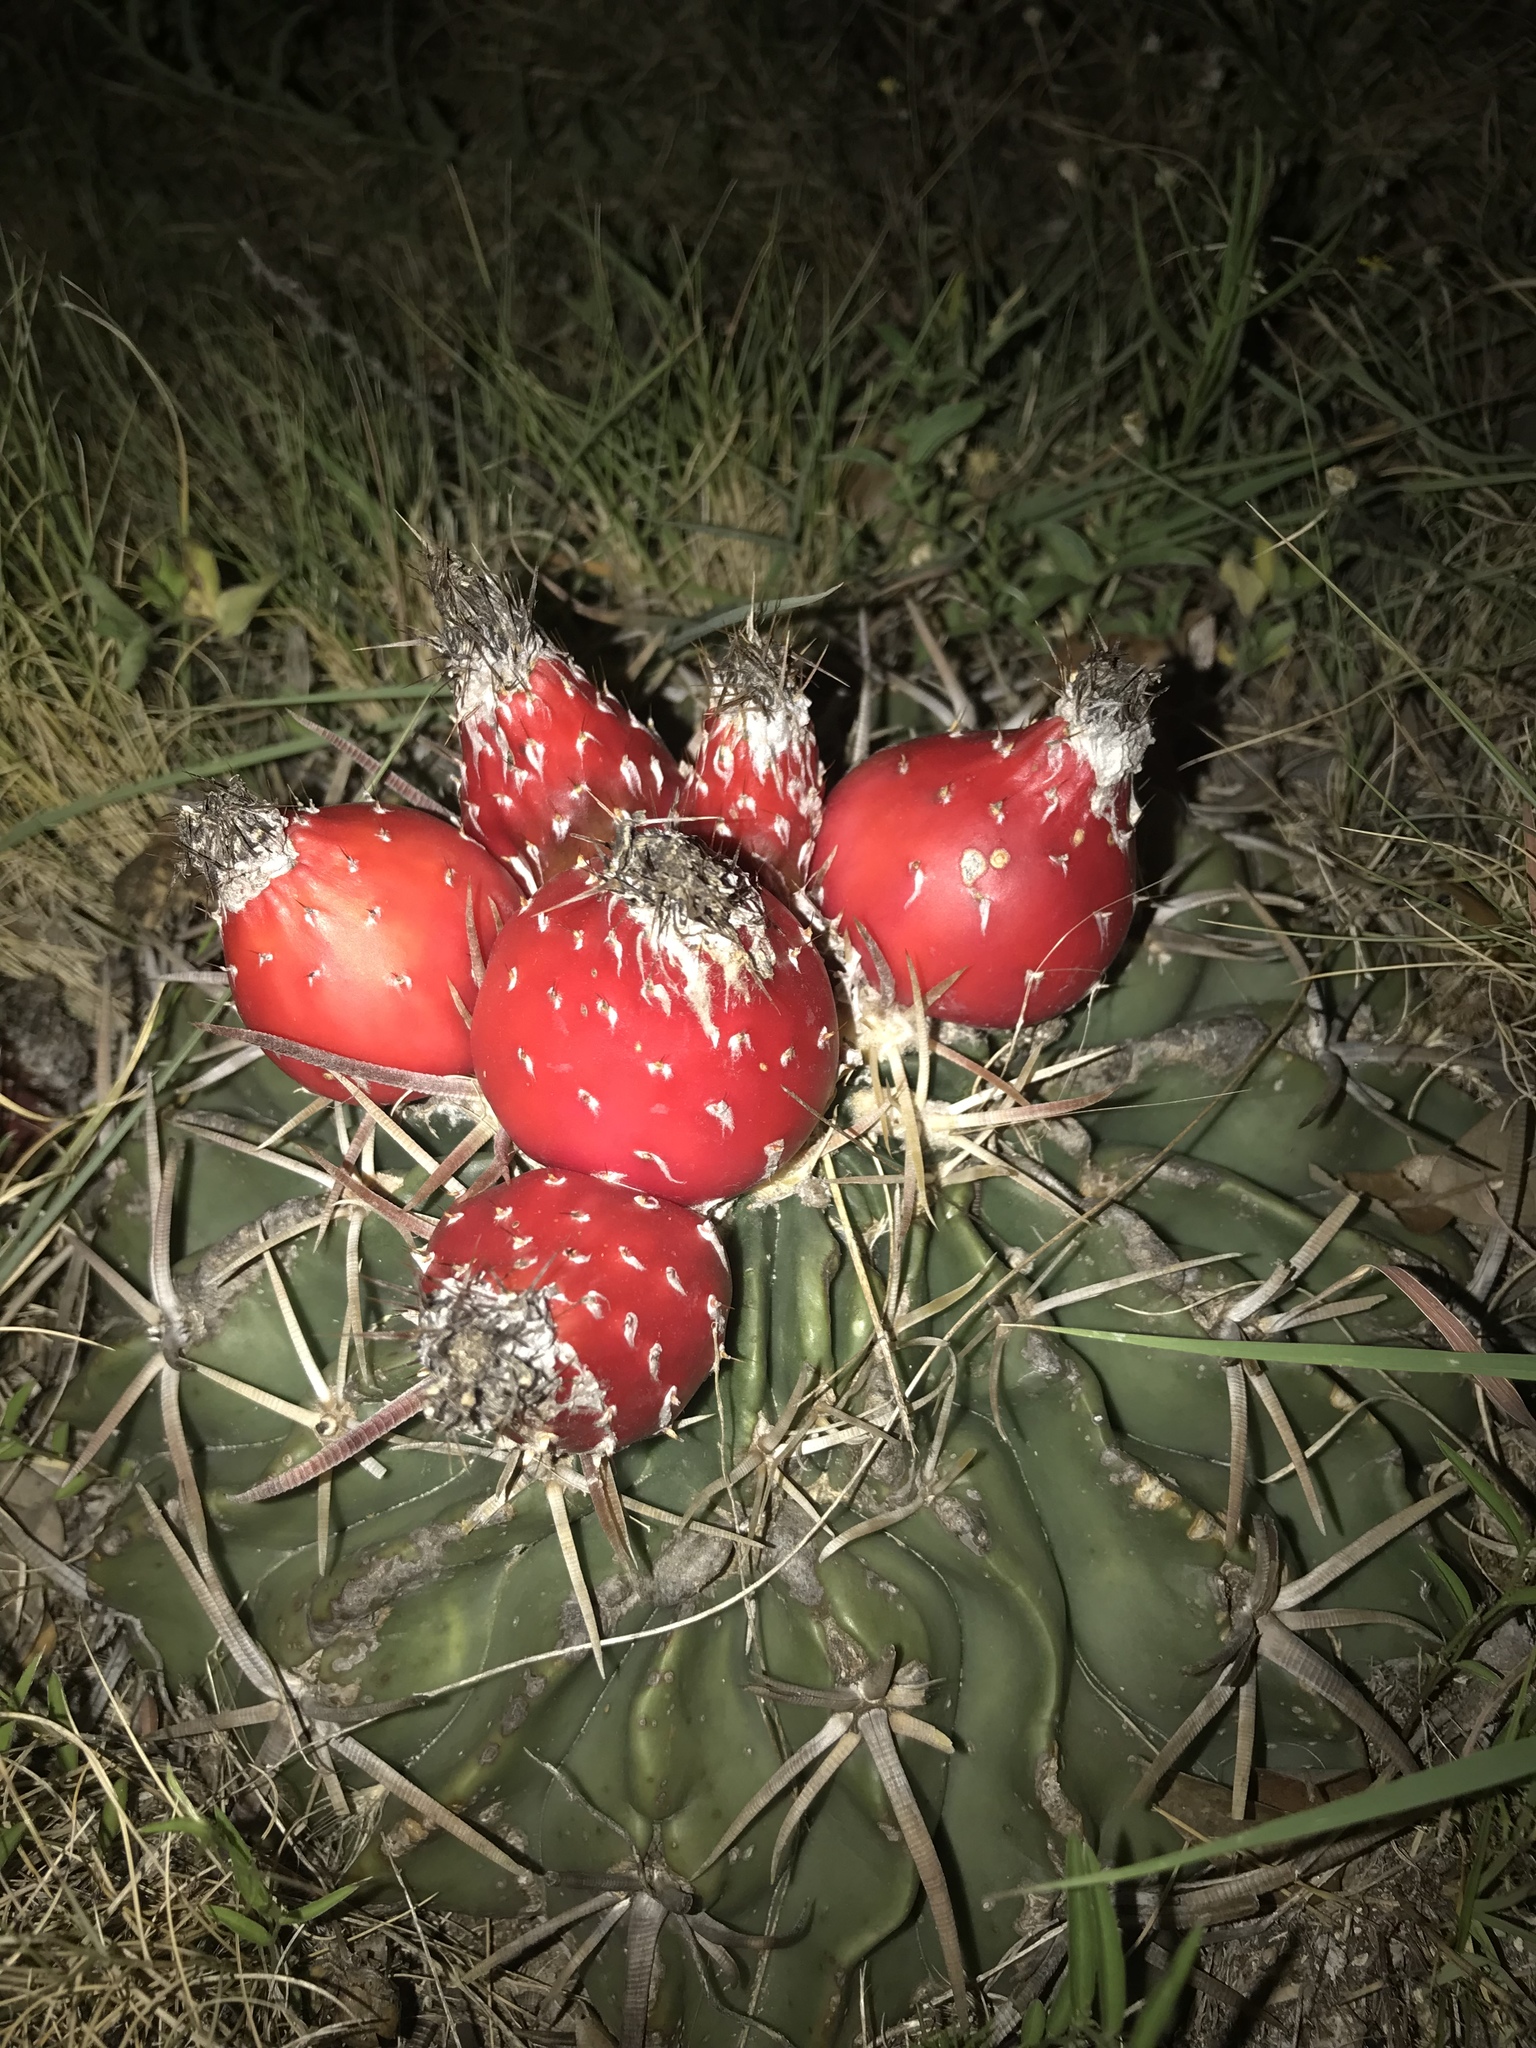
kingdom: Plantae
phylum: Tracheophyta
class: Magnoliopsida
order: Caryophyllales
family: Cactaceae
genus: Echinocactus
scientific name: Echinocactus texensis
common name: Devil's pincushion
